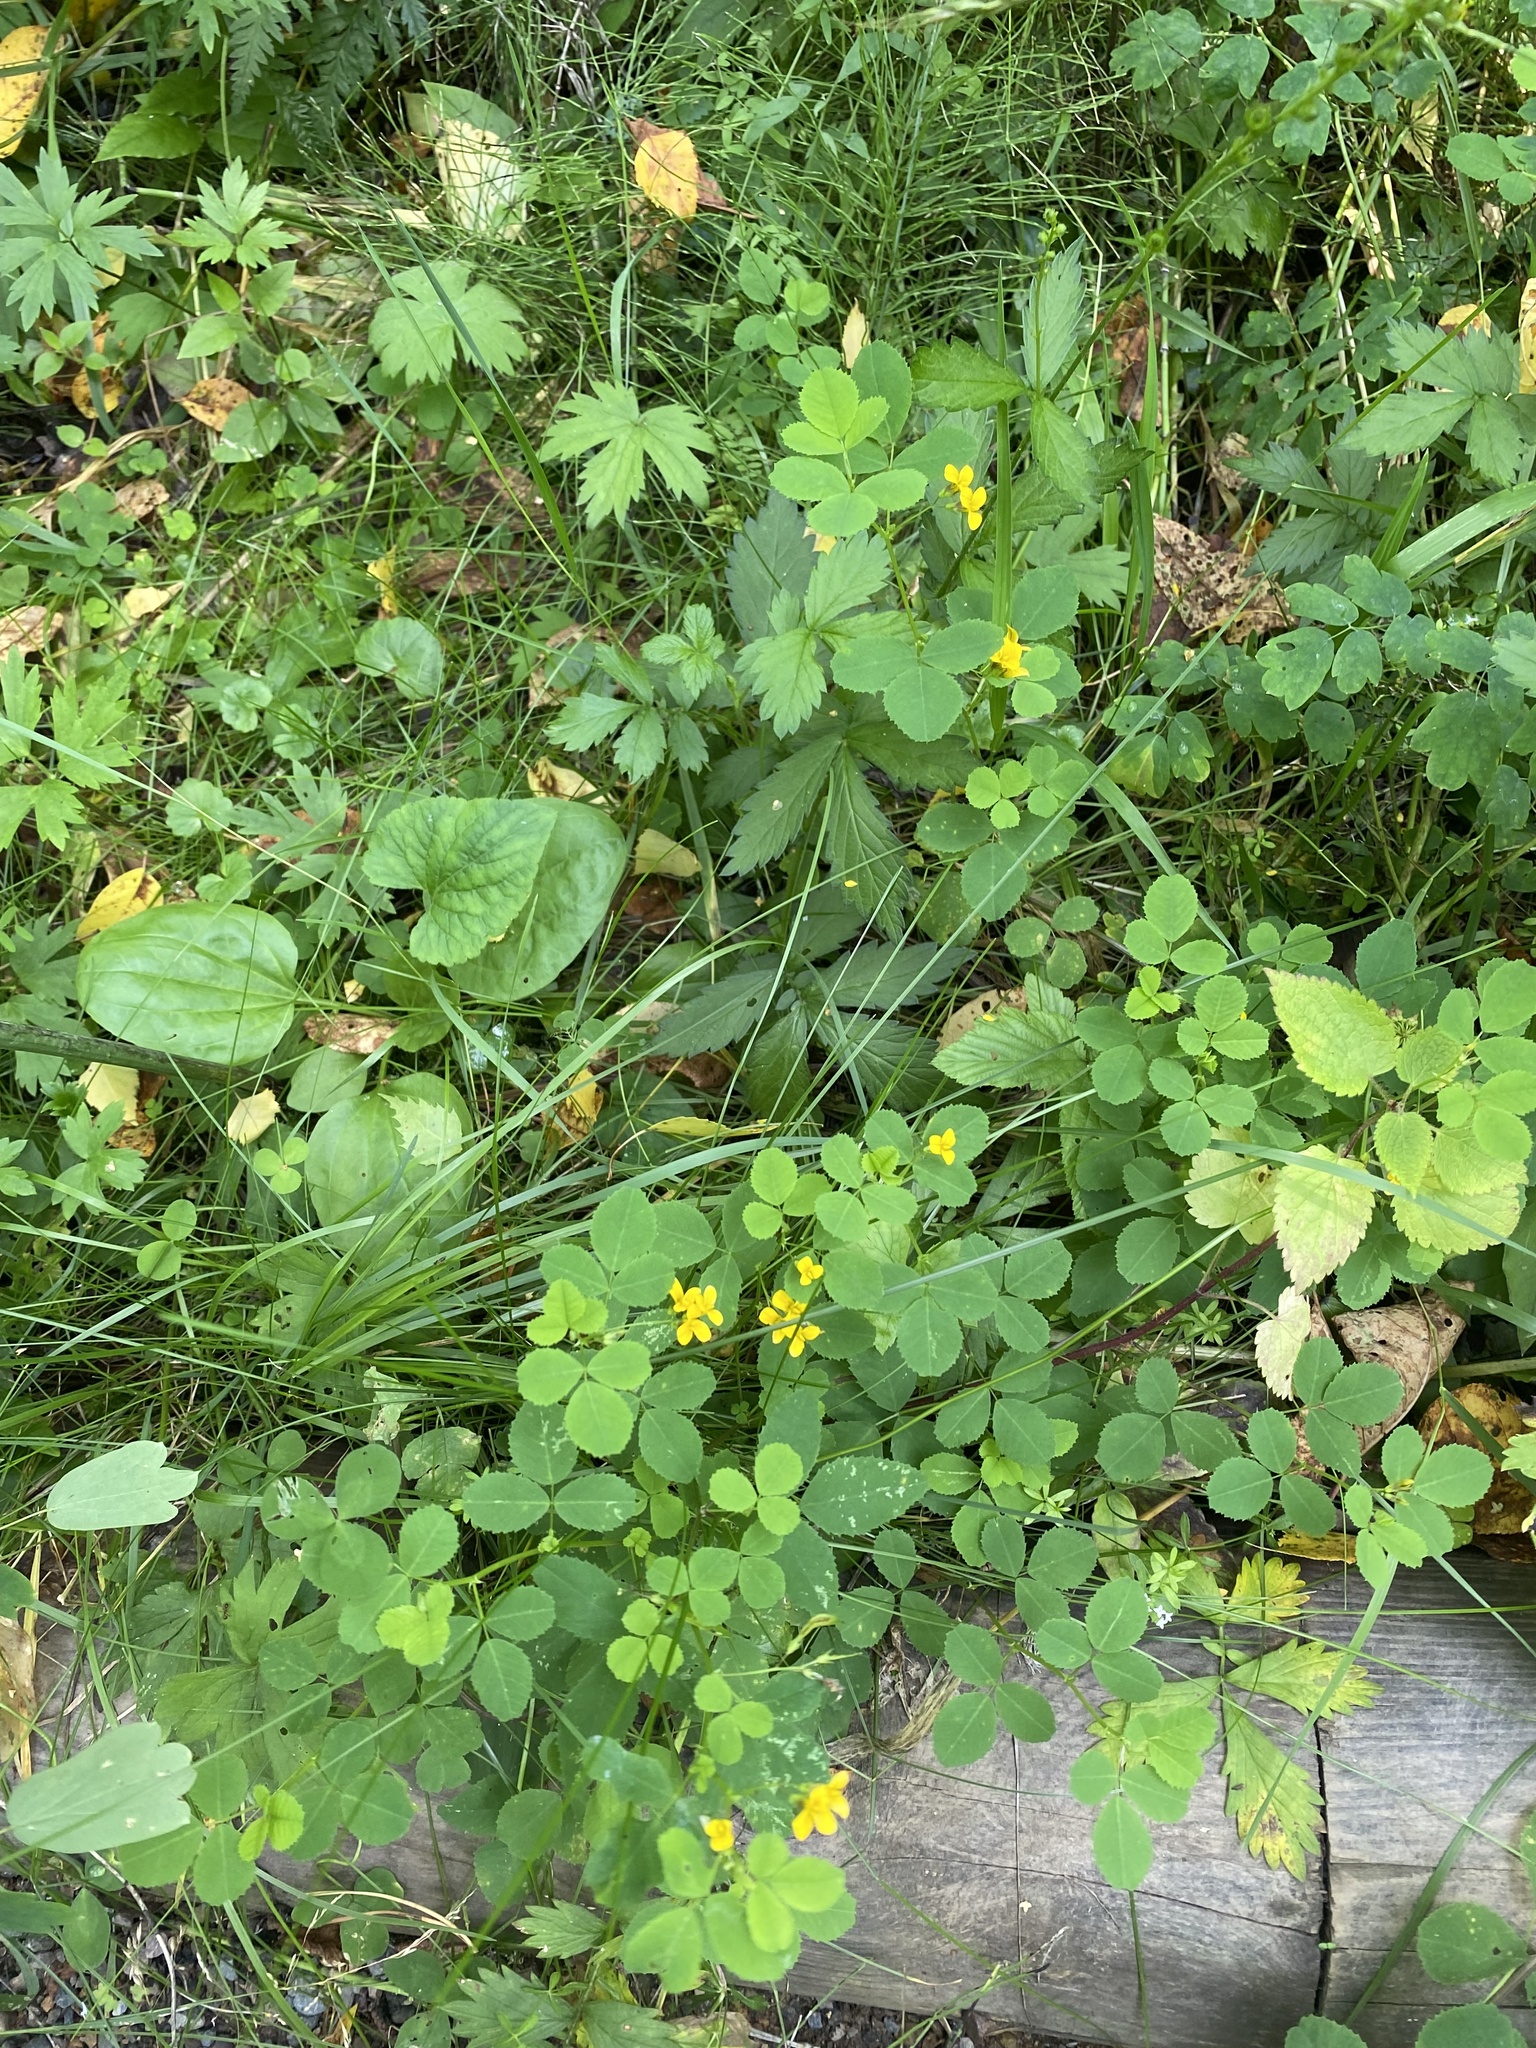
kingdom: Plantae
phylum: Tracheophyta
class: Magnoliopsida
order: Fabales
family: Fabaceae
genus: Medicago
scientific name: Medicago platycarpos
